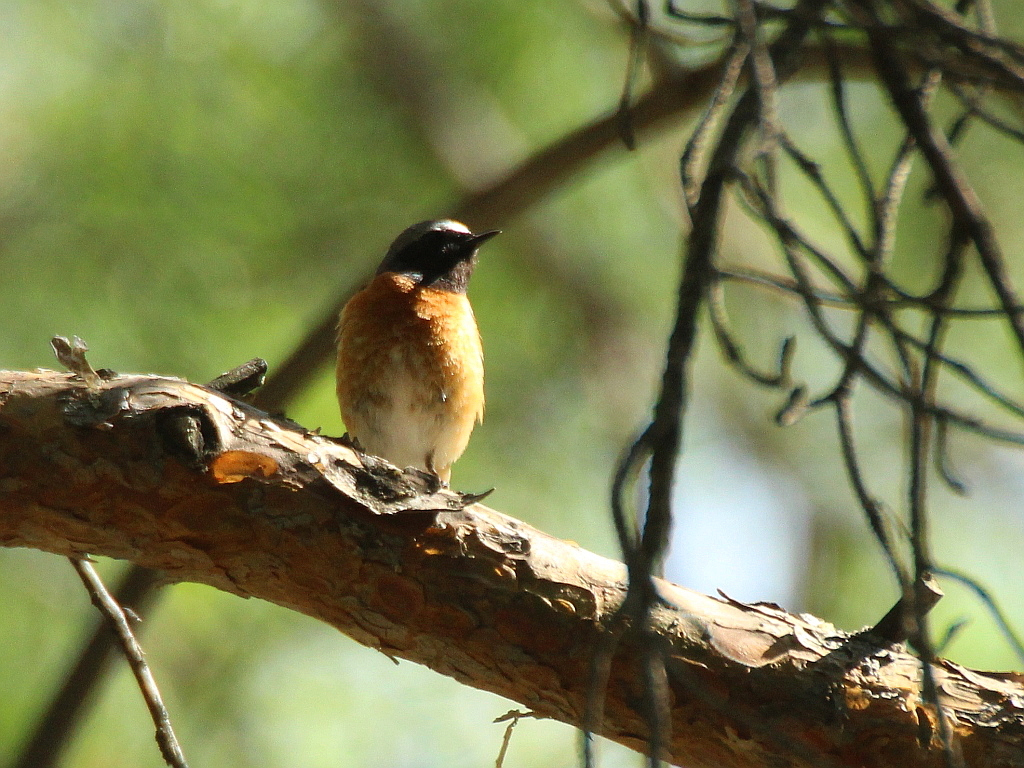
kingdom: Animalia
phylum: Chordata
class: Aves
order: Passeriformes
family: Muscicapidae
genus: Phoenicurus
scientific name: Phoenicurus phoenicurus
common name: Common redstart
